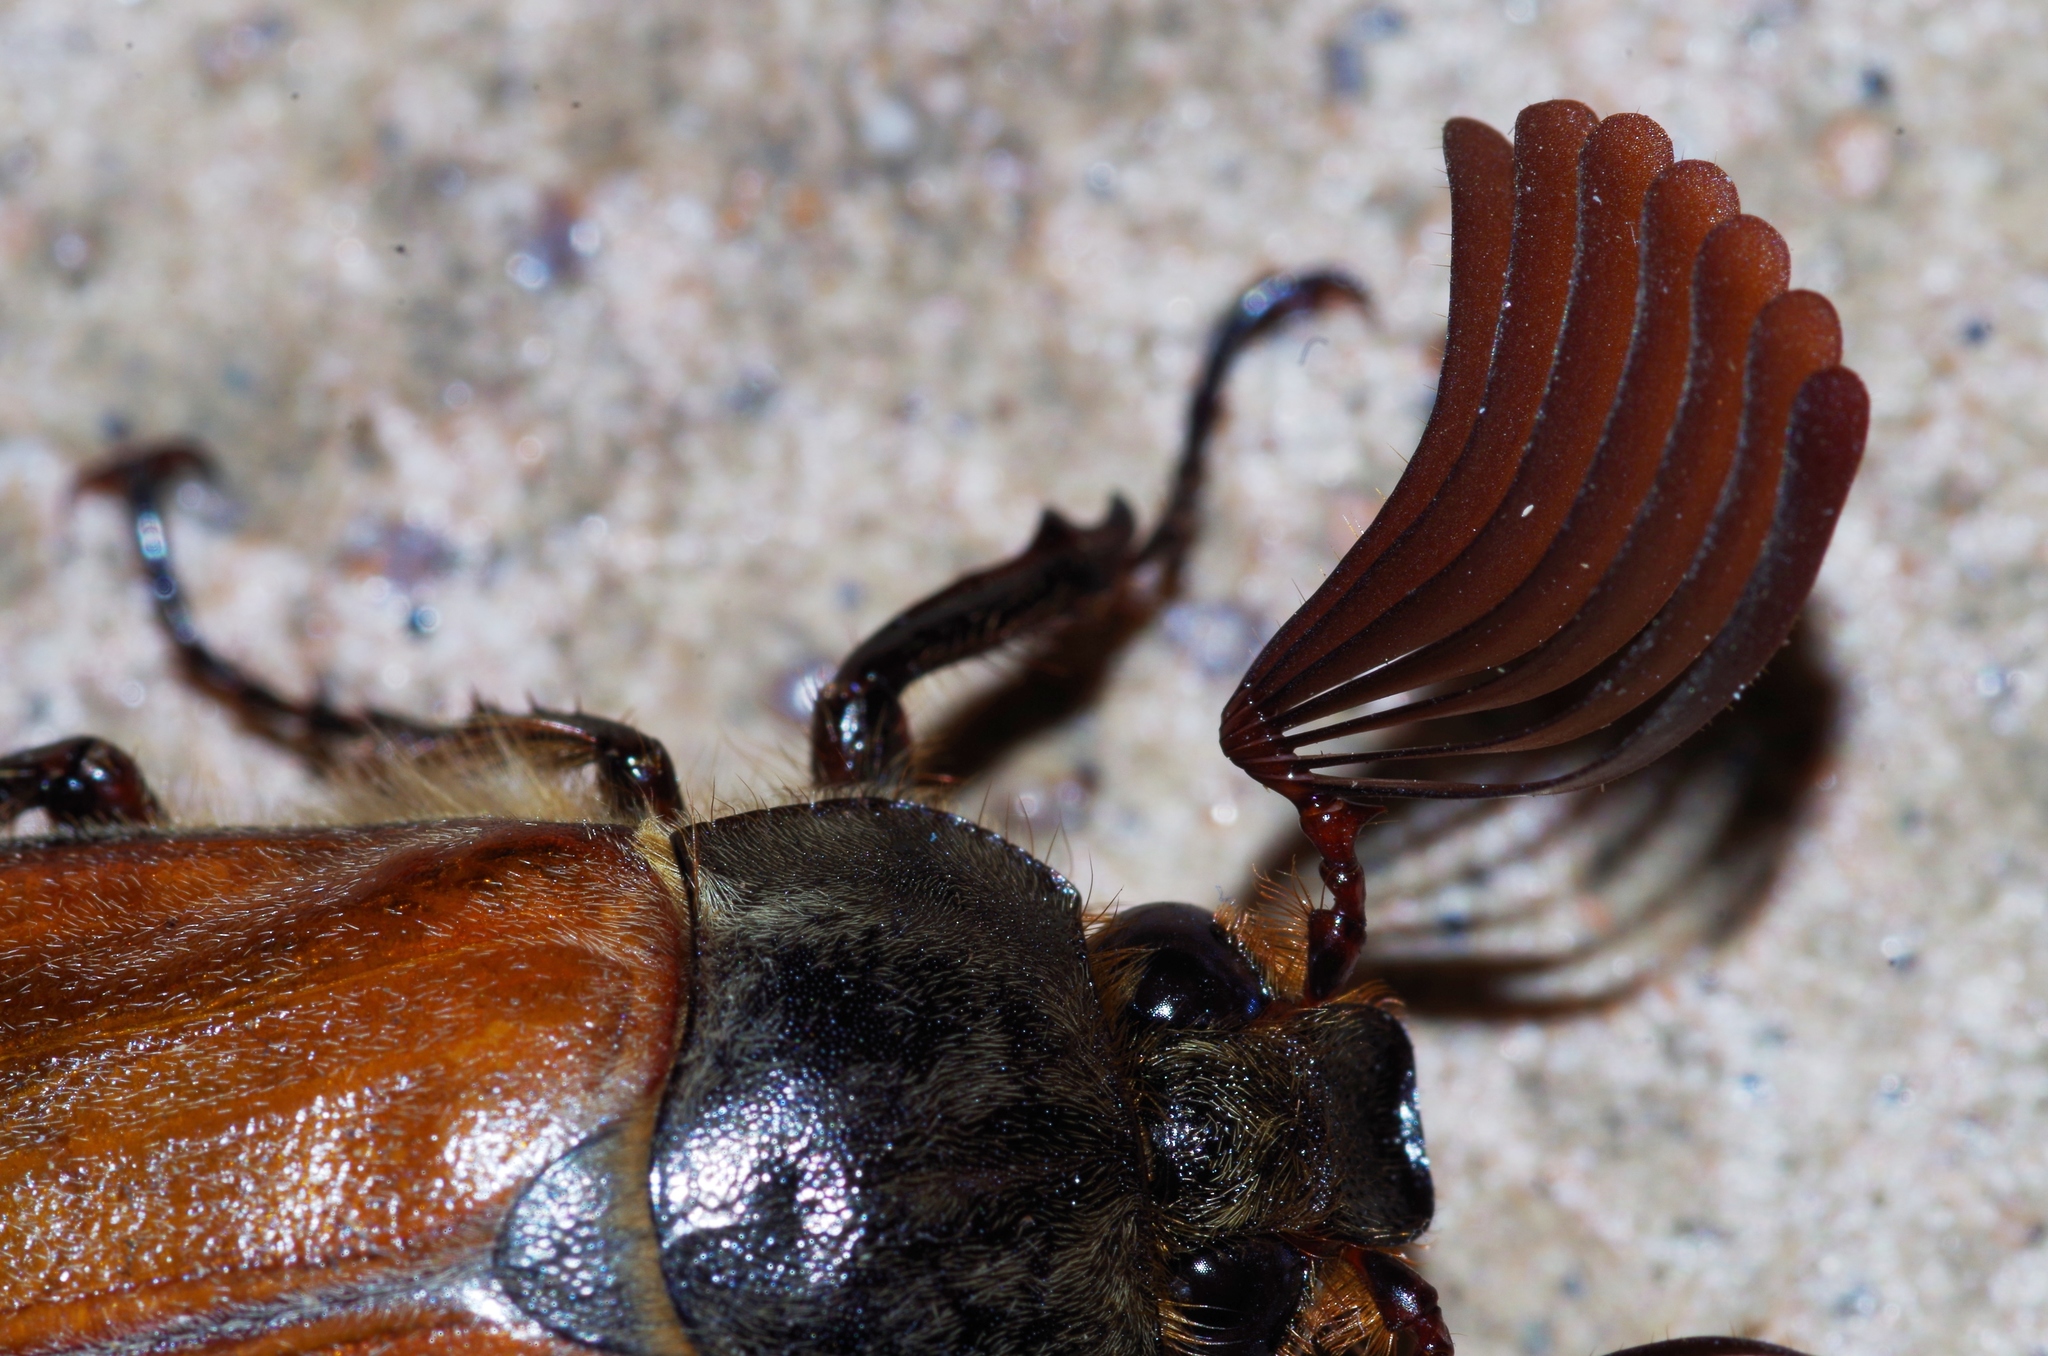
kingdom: Animalia
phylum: Arthropoda
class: Insecta
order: Coleoptera
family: Scarabaeidae
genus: Tricholontha
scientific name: Tricholontha papagena
